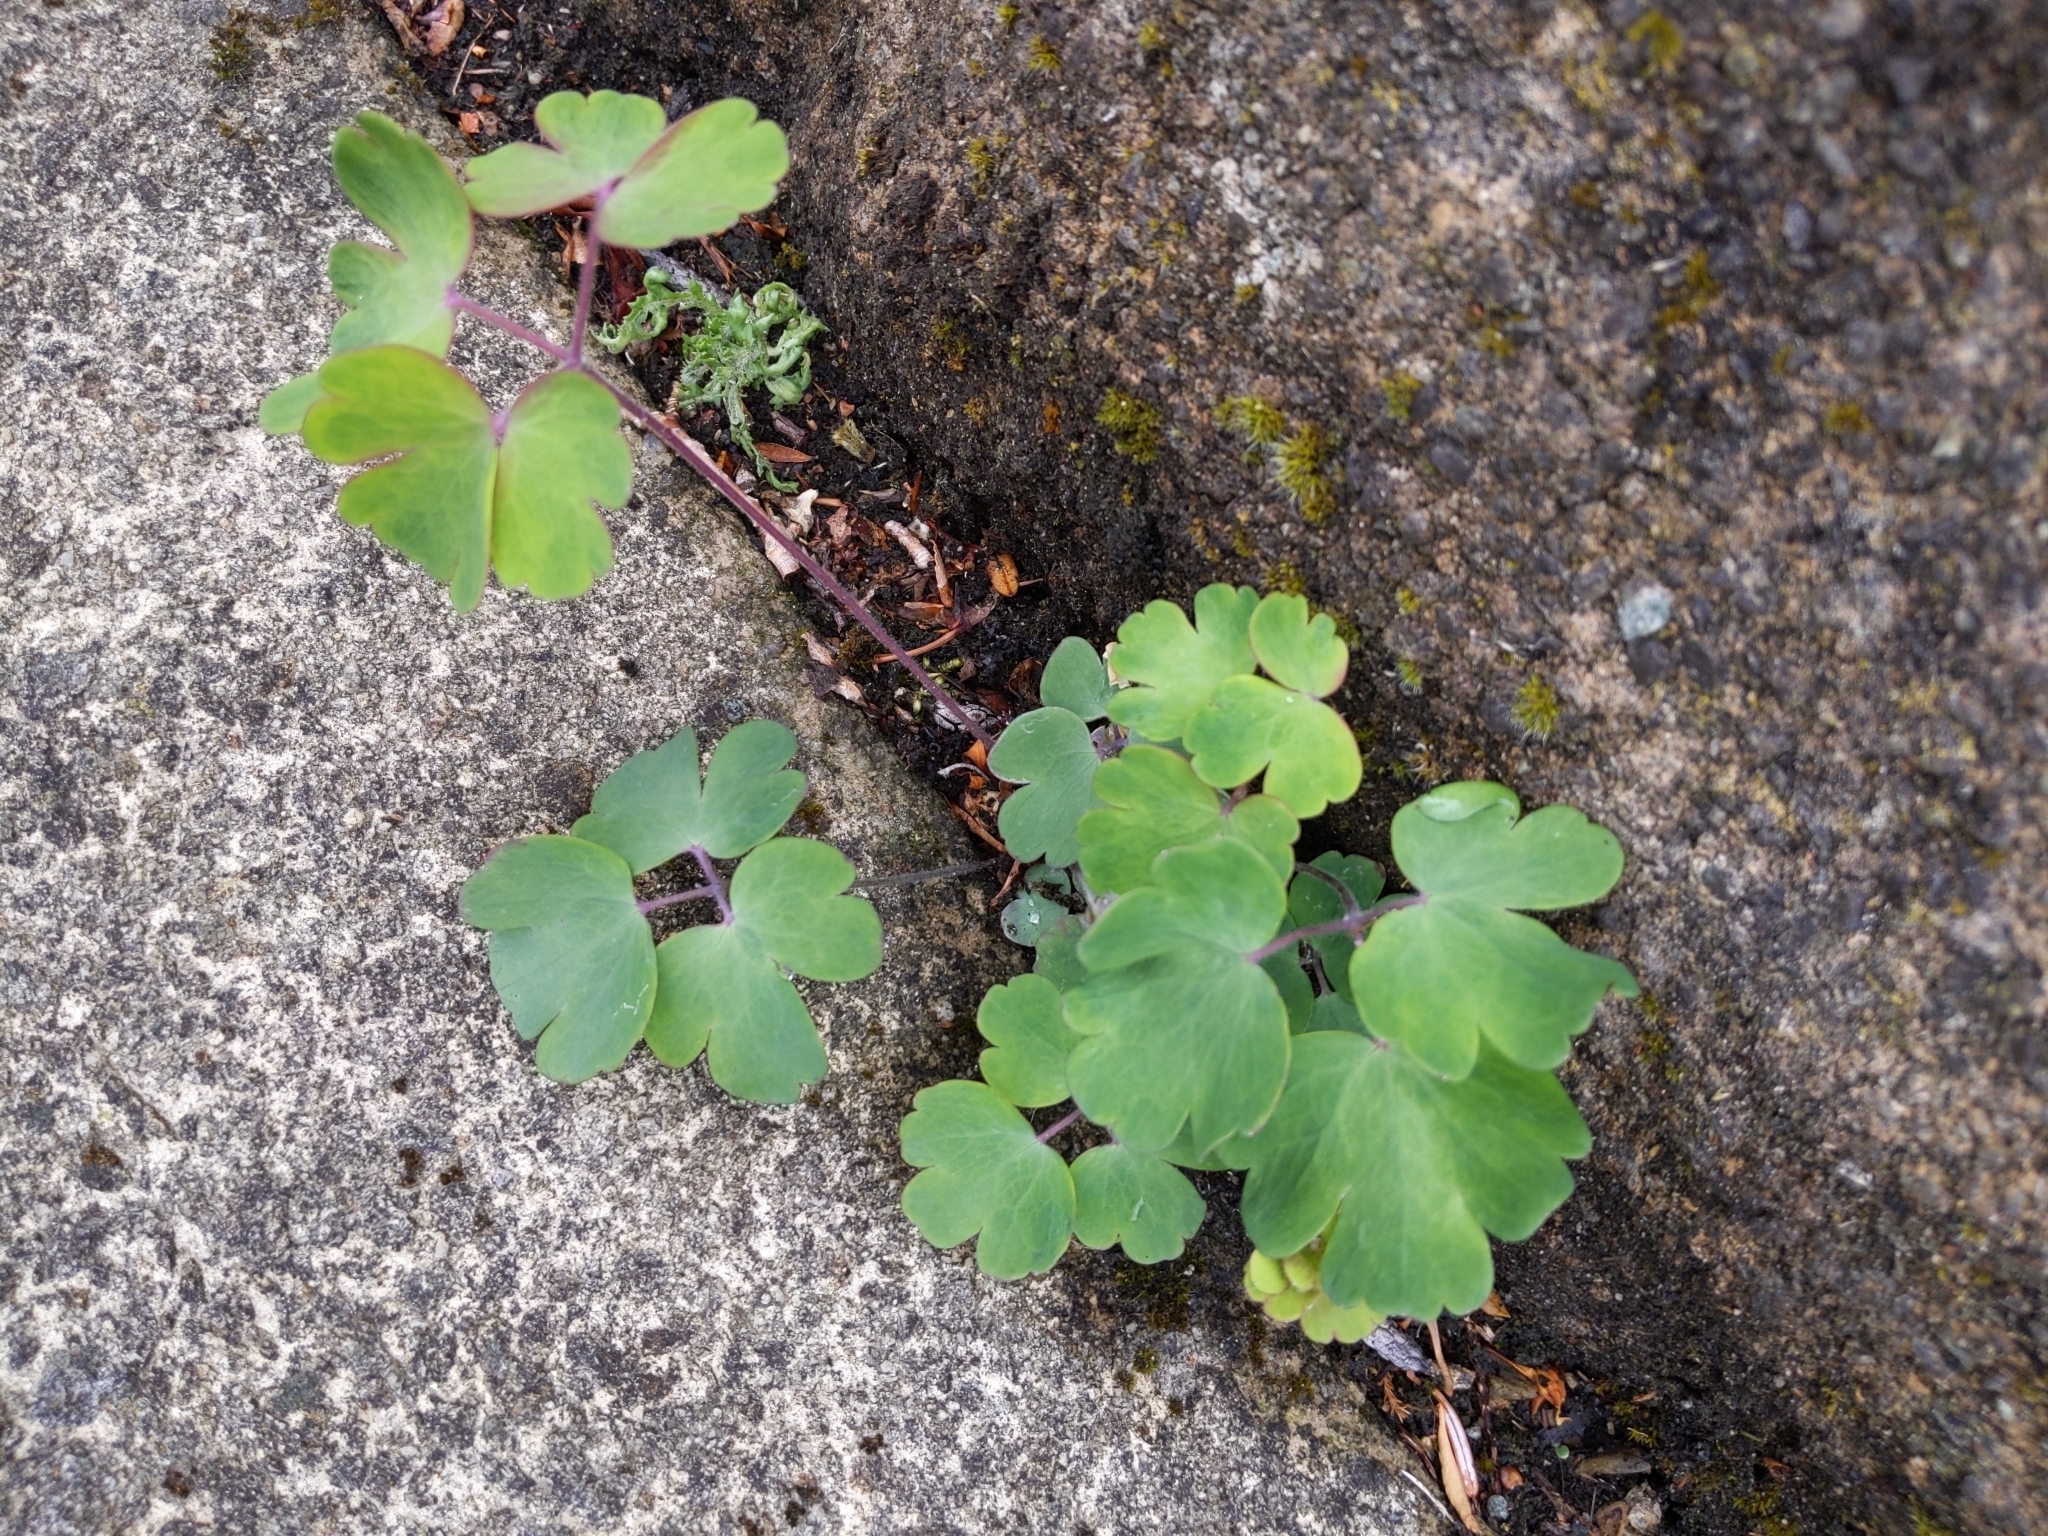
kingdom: Plantae
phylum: Tracheophyta
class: Magnoliopsida
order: Ranunculales
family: Ranunculaceae
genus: Aquilegia
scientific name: Aquilegia vulgaris
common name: Columbine
